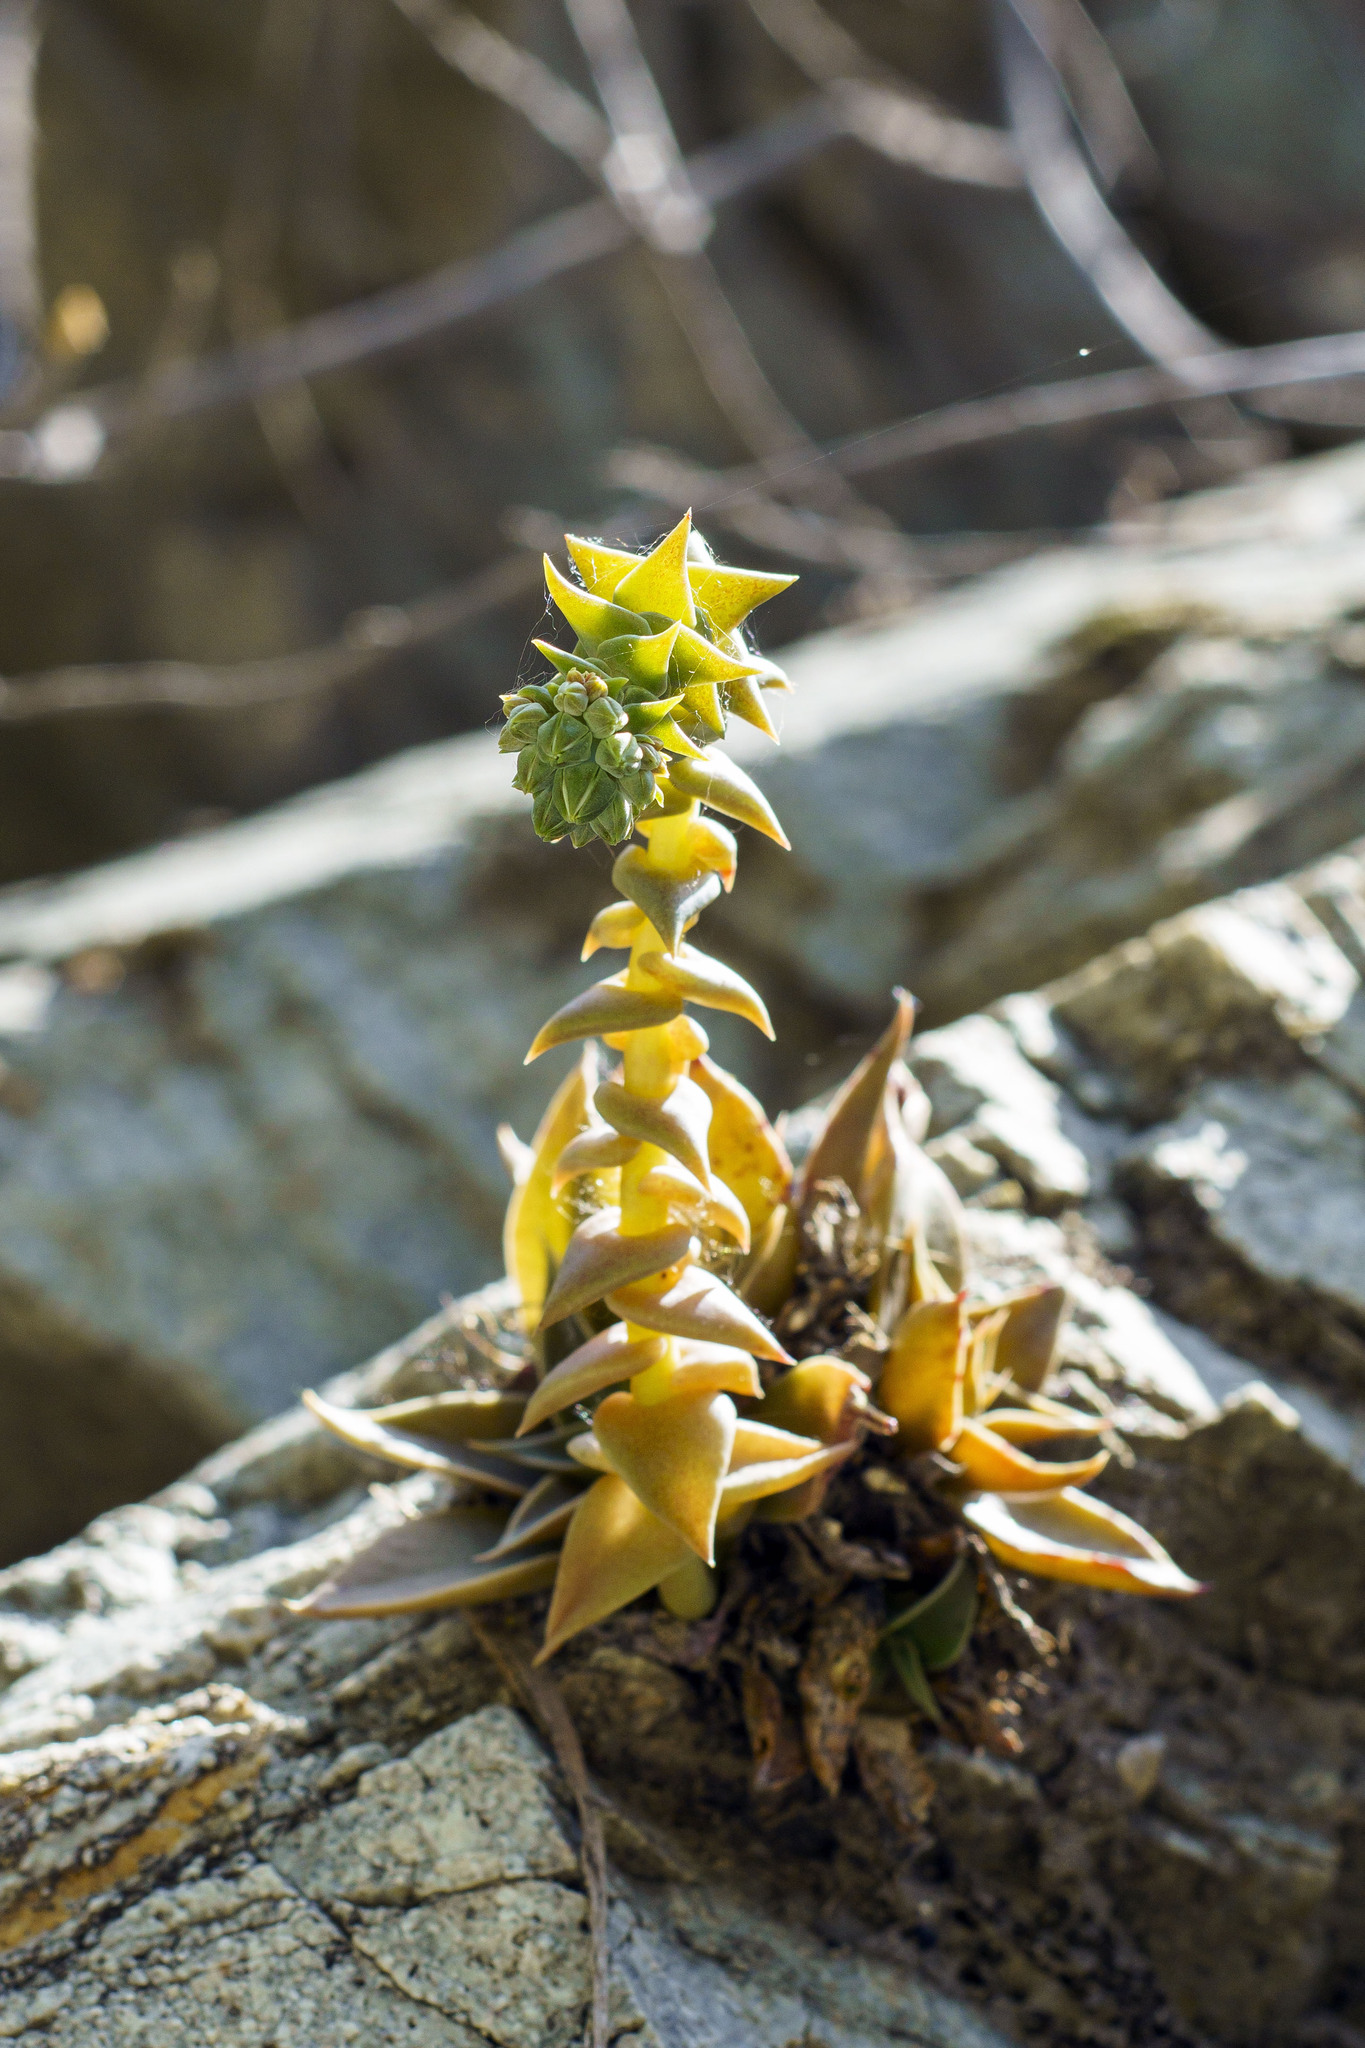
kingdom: Plantae
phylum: Tracheophyta
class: Magnoliopsida
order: Saxifragales
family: Crassulaceae
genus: Dudleya
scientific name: Dudleya cymosa
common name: Canyon dudleya
